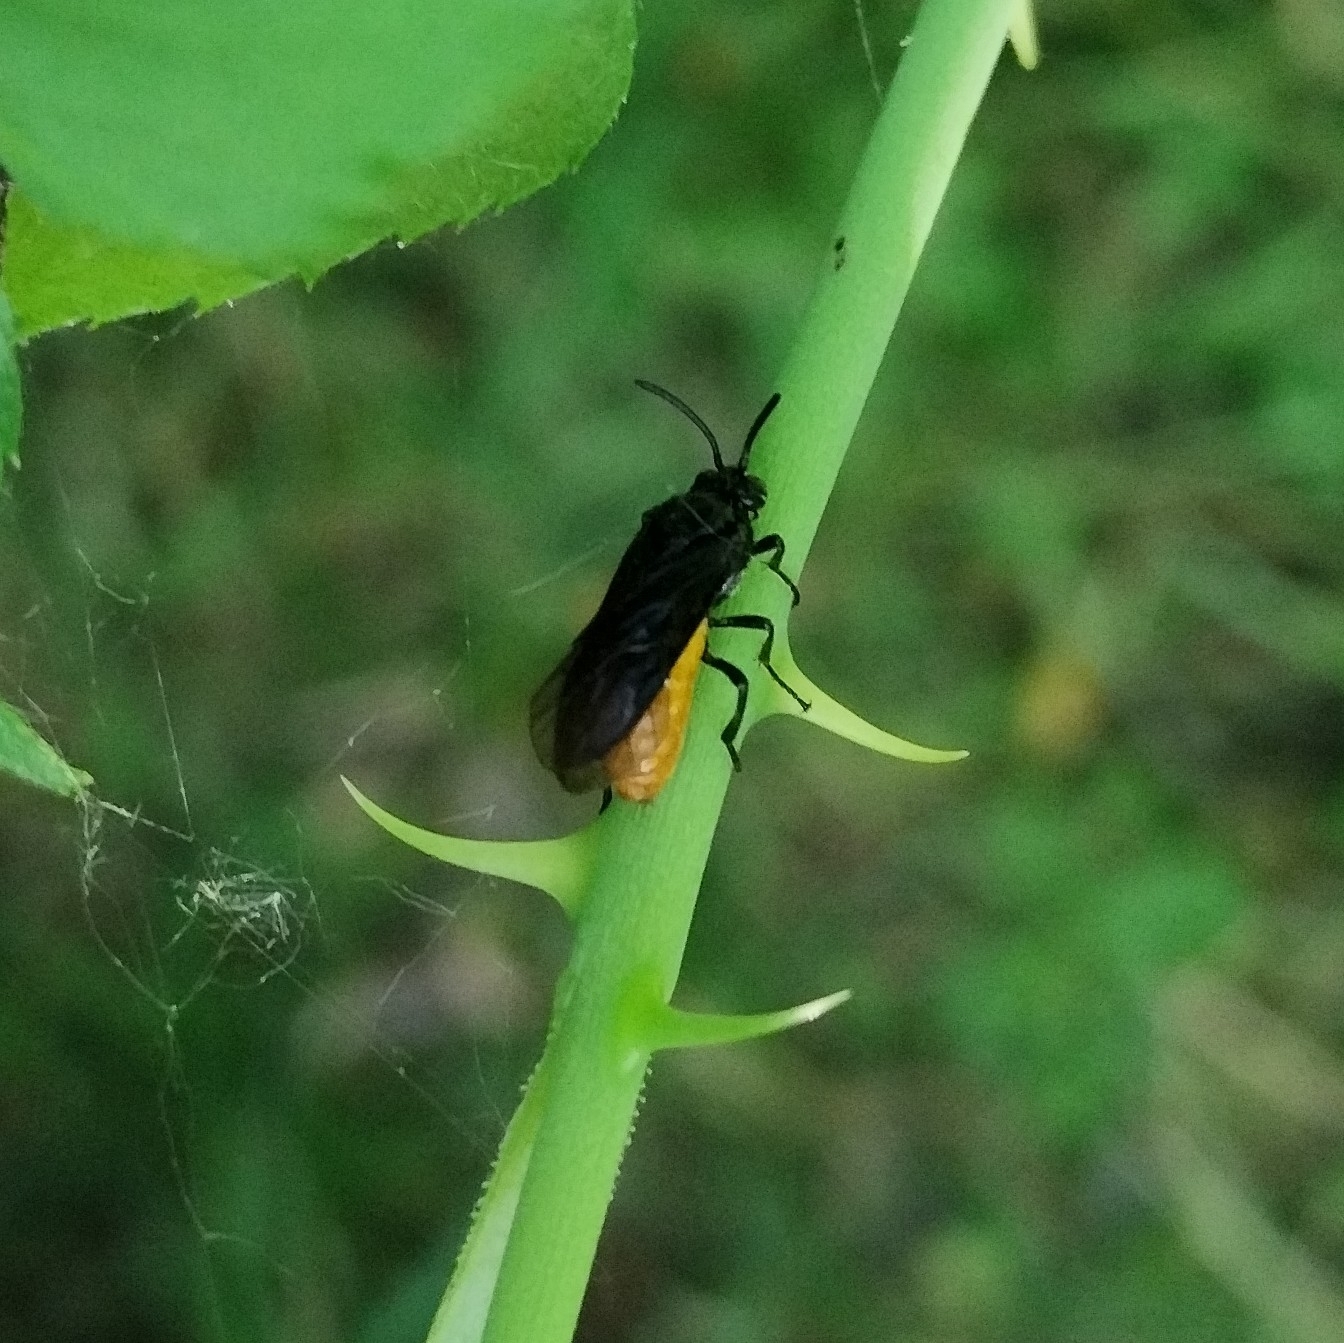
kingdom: Animalia
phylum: Arthropoda
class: Insecta
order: Hymenoptera
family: Argidae
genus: Arge
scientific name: Arge pagana
